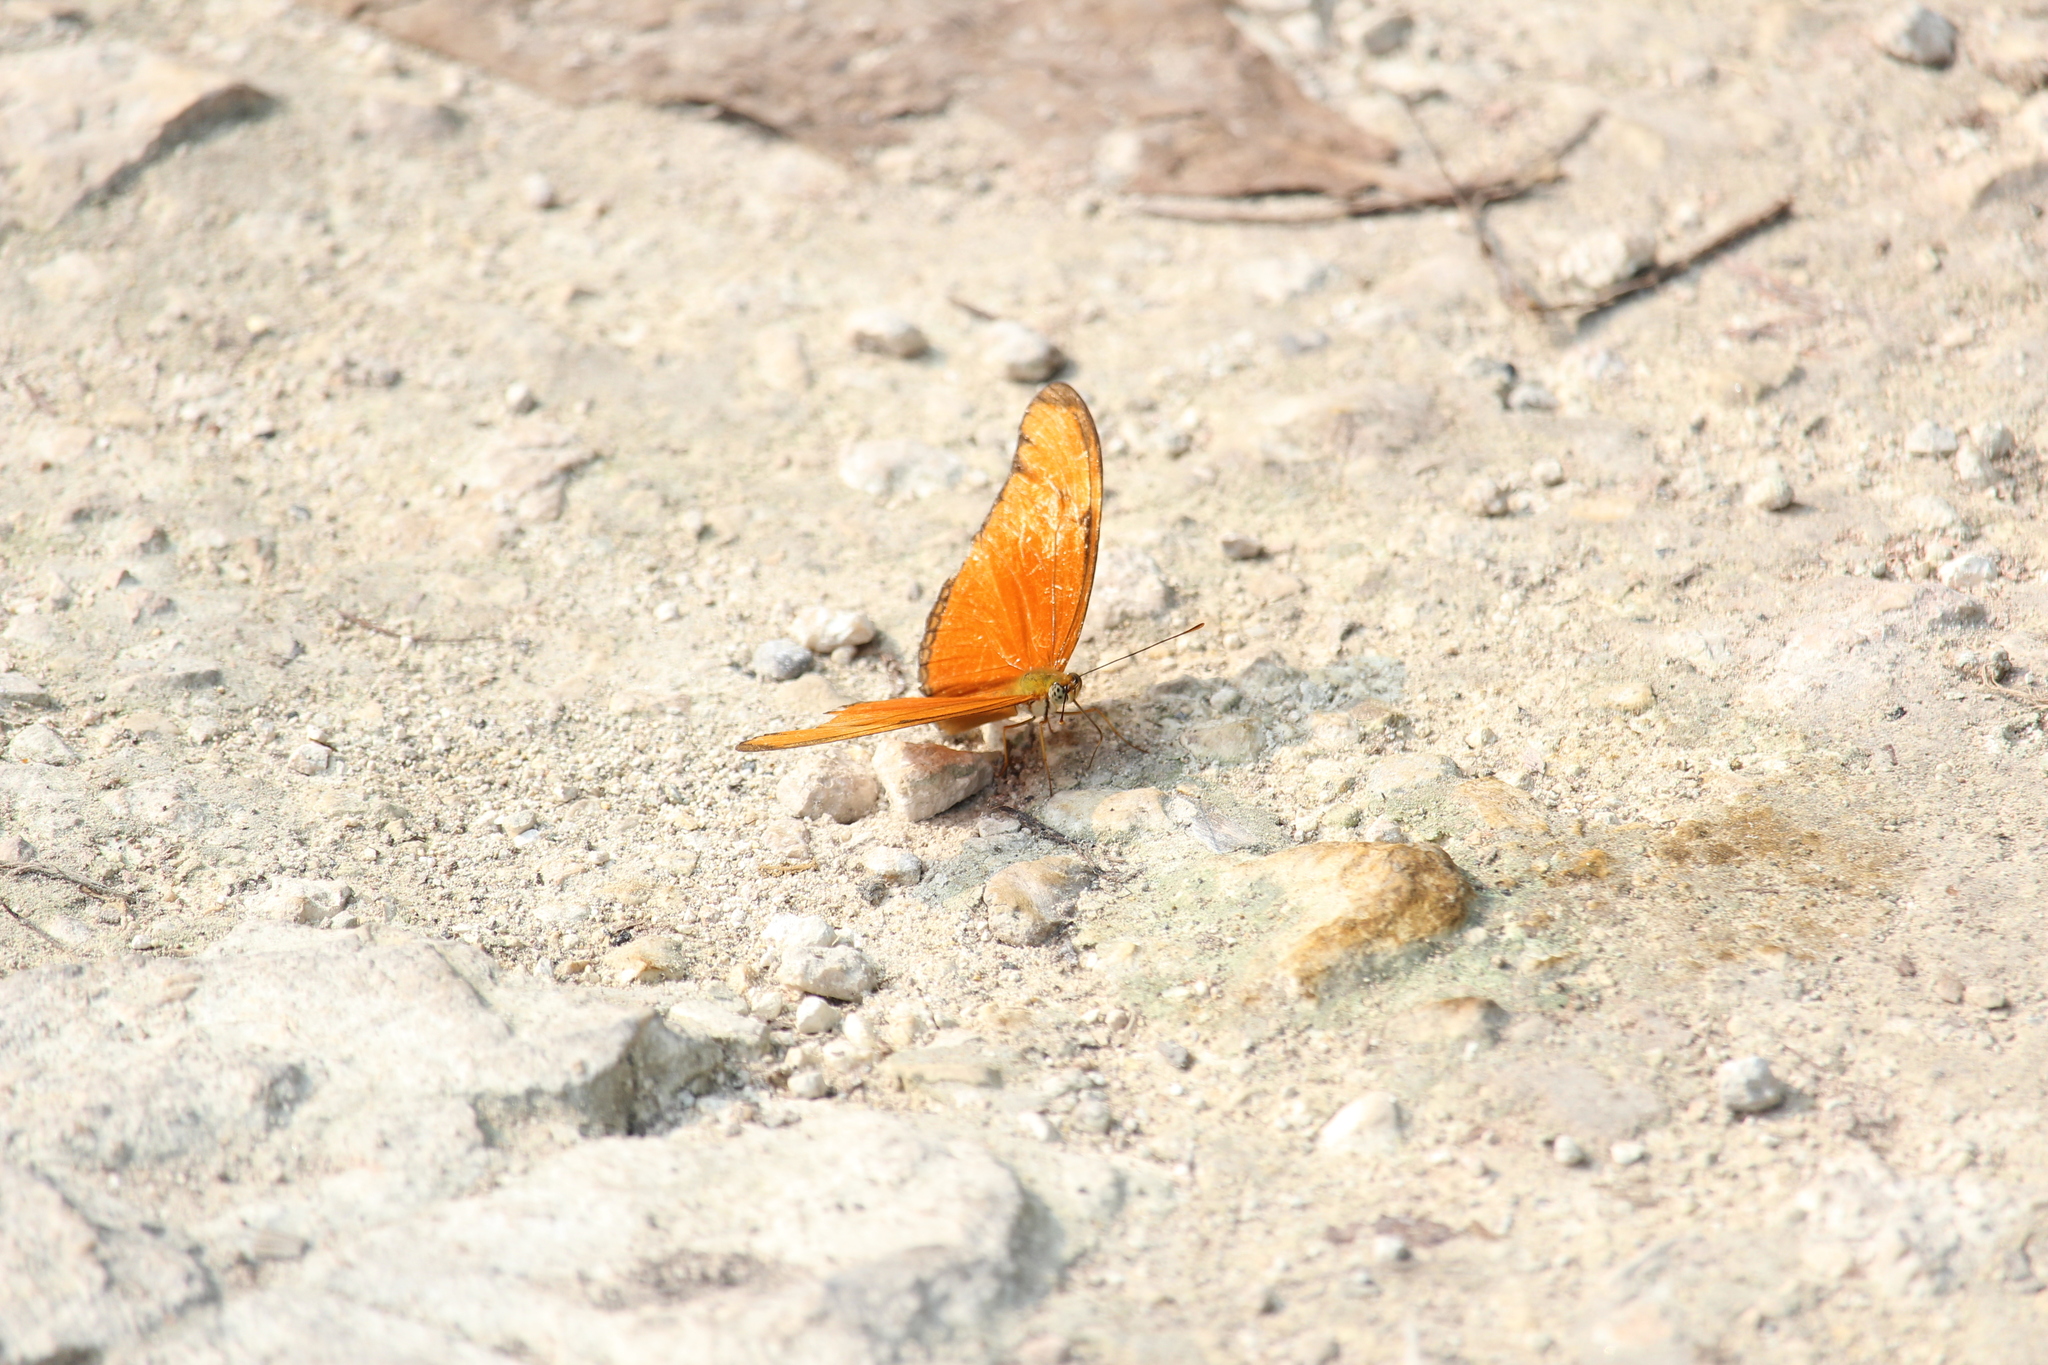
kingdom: Animalia
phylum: Arthropoda
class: Insecta
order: Lepidoptera
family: Nymphalidae
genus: Dryas
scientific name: Dryas iulia
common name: Flambeau
